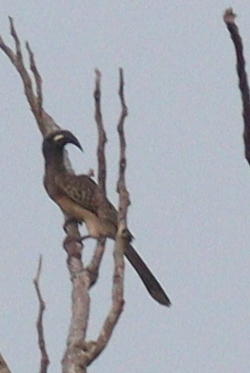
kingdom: Animalia
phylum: Chordata
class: Aves
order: Bucerotiformes
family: Bucerotidae
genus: Lophoceros
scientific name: Lophoceros nasutus
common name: African grey hornbill
